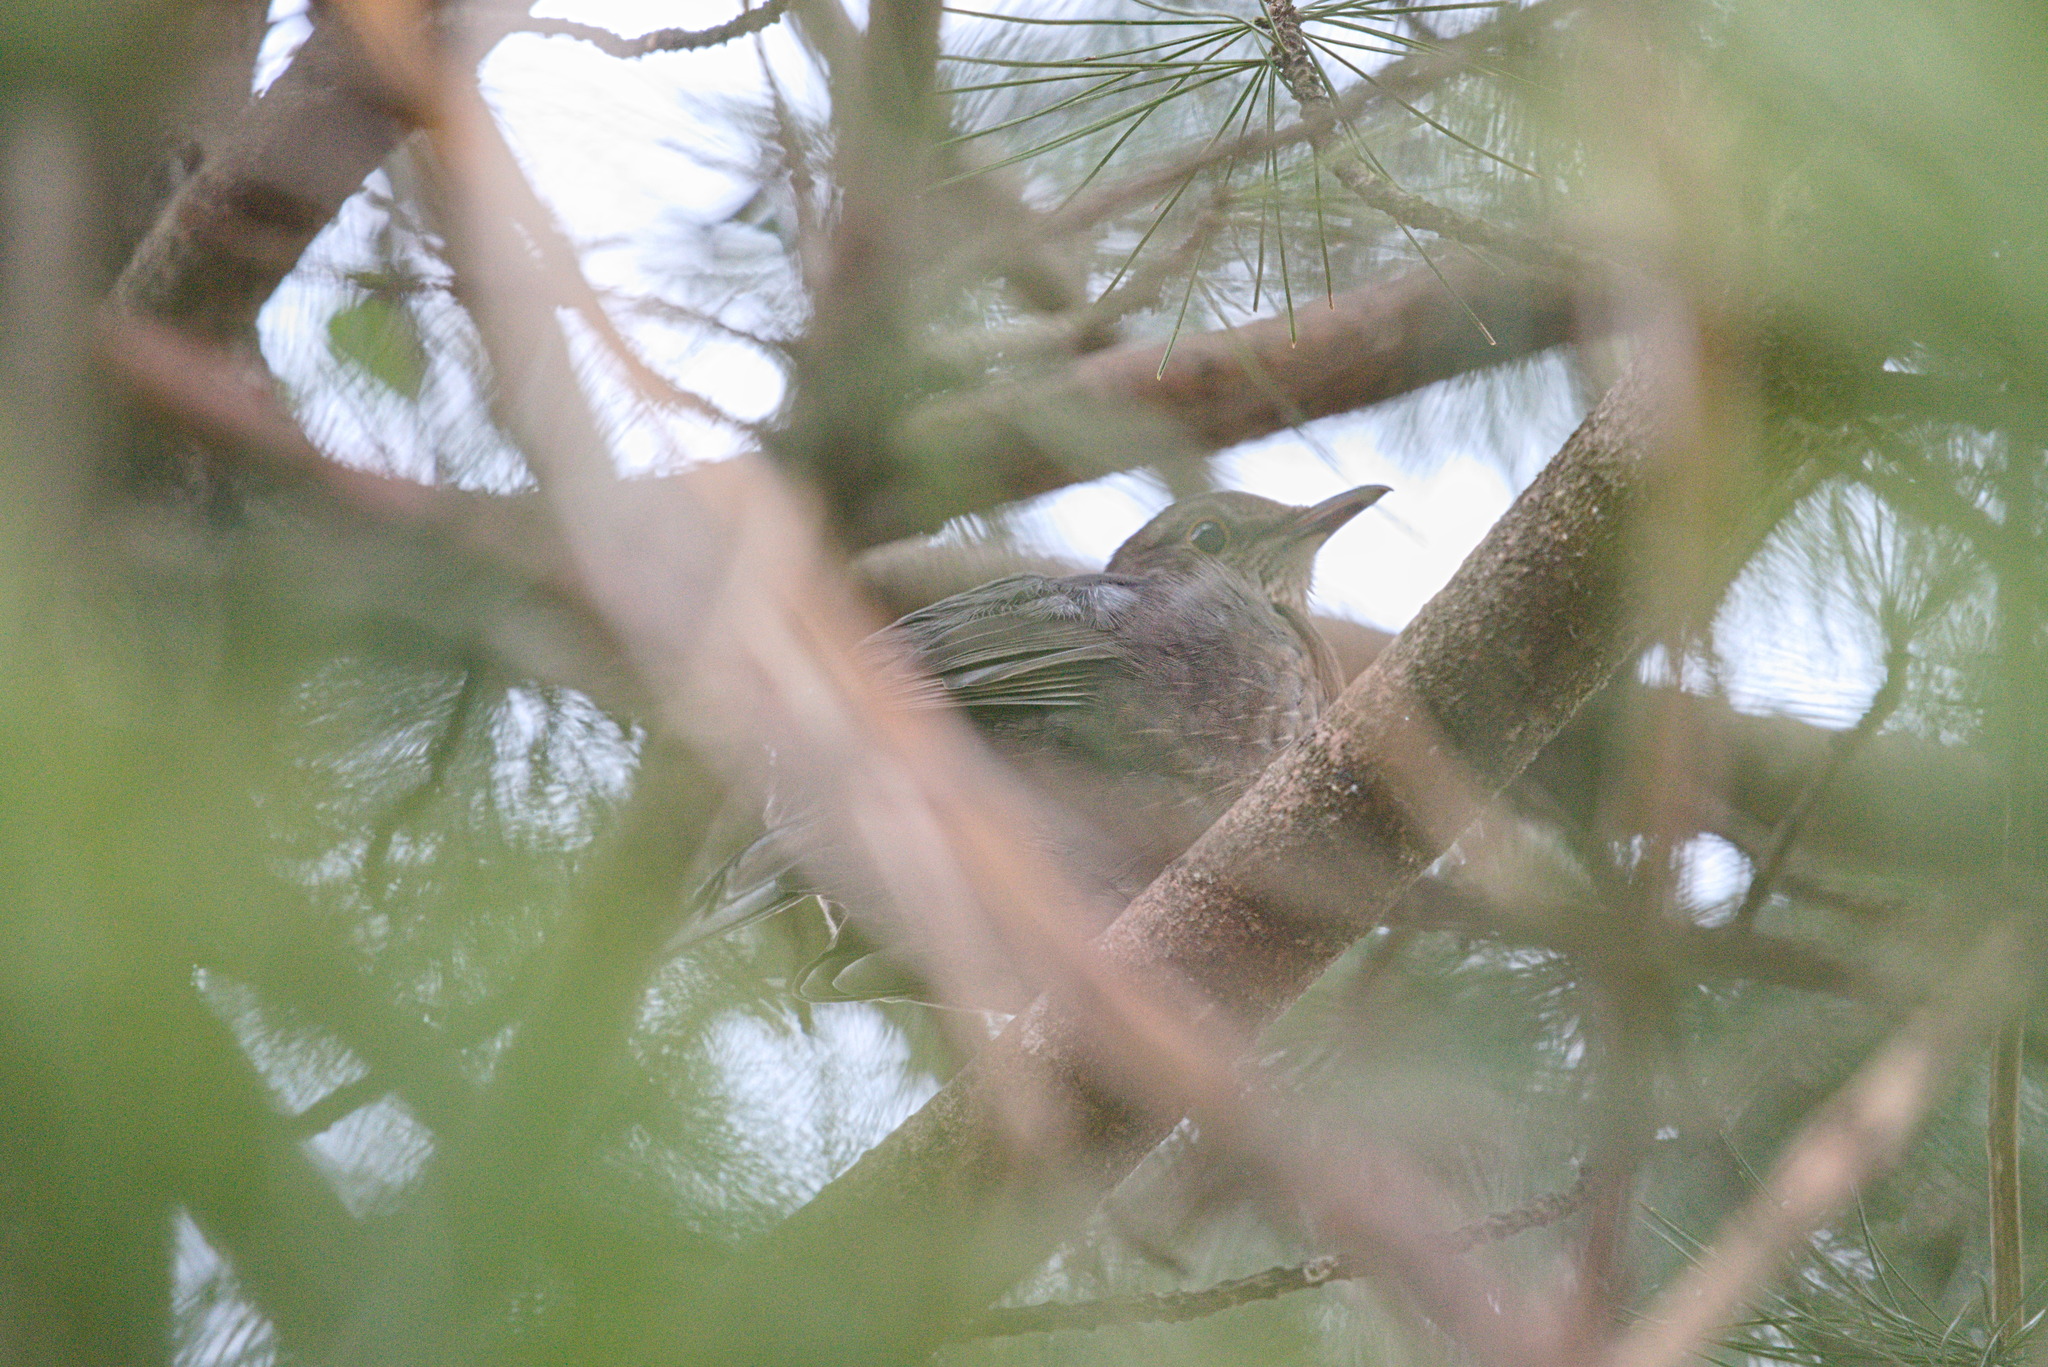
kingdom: Animalia
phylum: Chordata
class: Aves
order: Passeriformes
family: Turdidae
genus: Turdus
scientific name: Turdus merula
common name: Common blackbird
